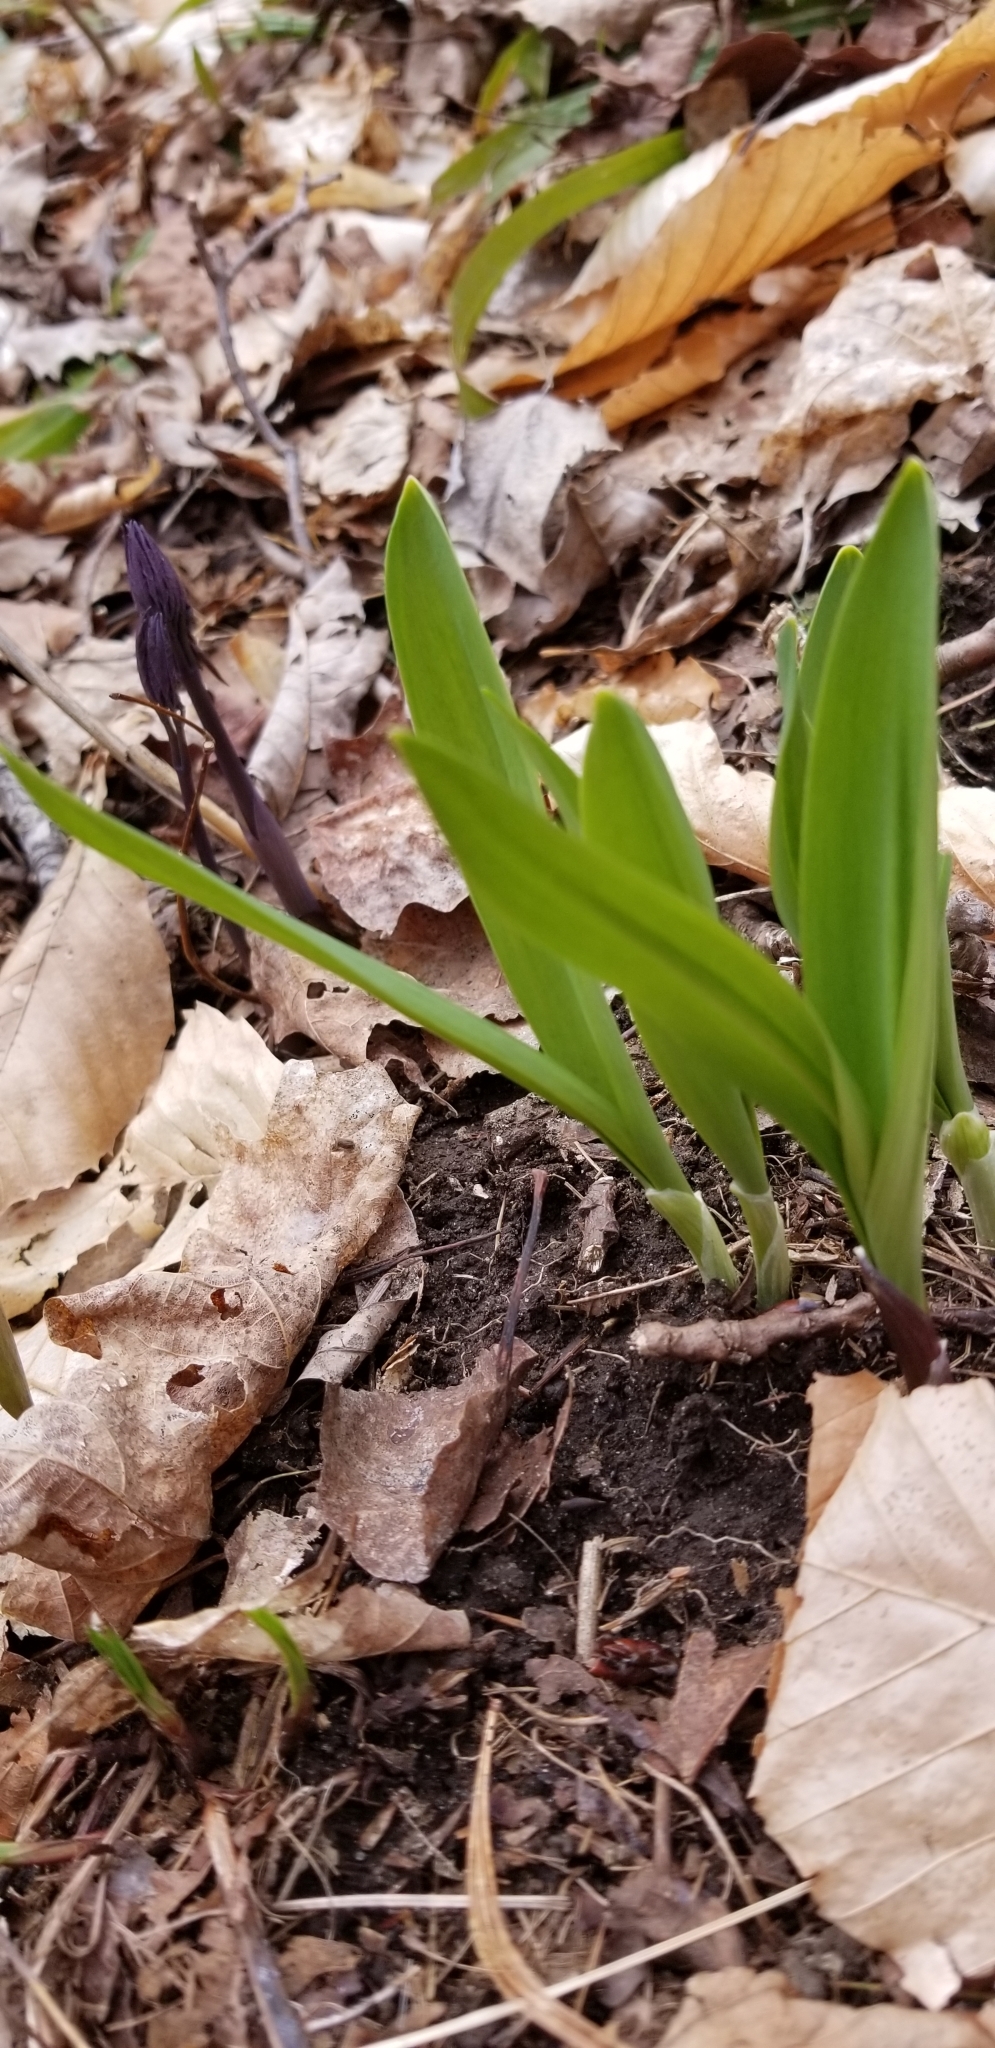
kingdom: Plantae
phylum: Tracheophyta
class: Liliopsida
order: Asparagales
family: Amaryllidaceae
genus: Allium
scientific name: Allium tricoccum
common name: Ramp
